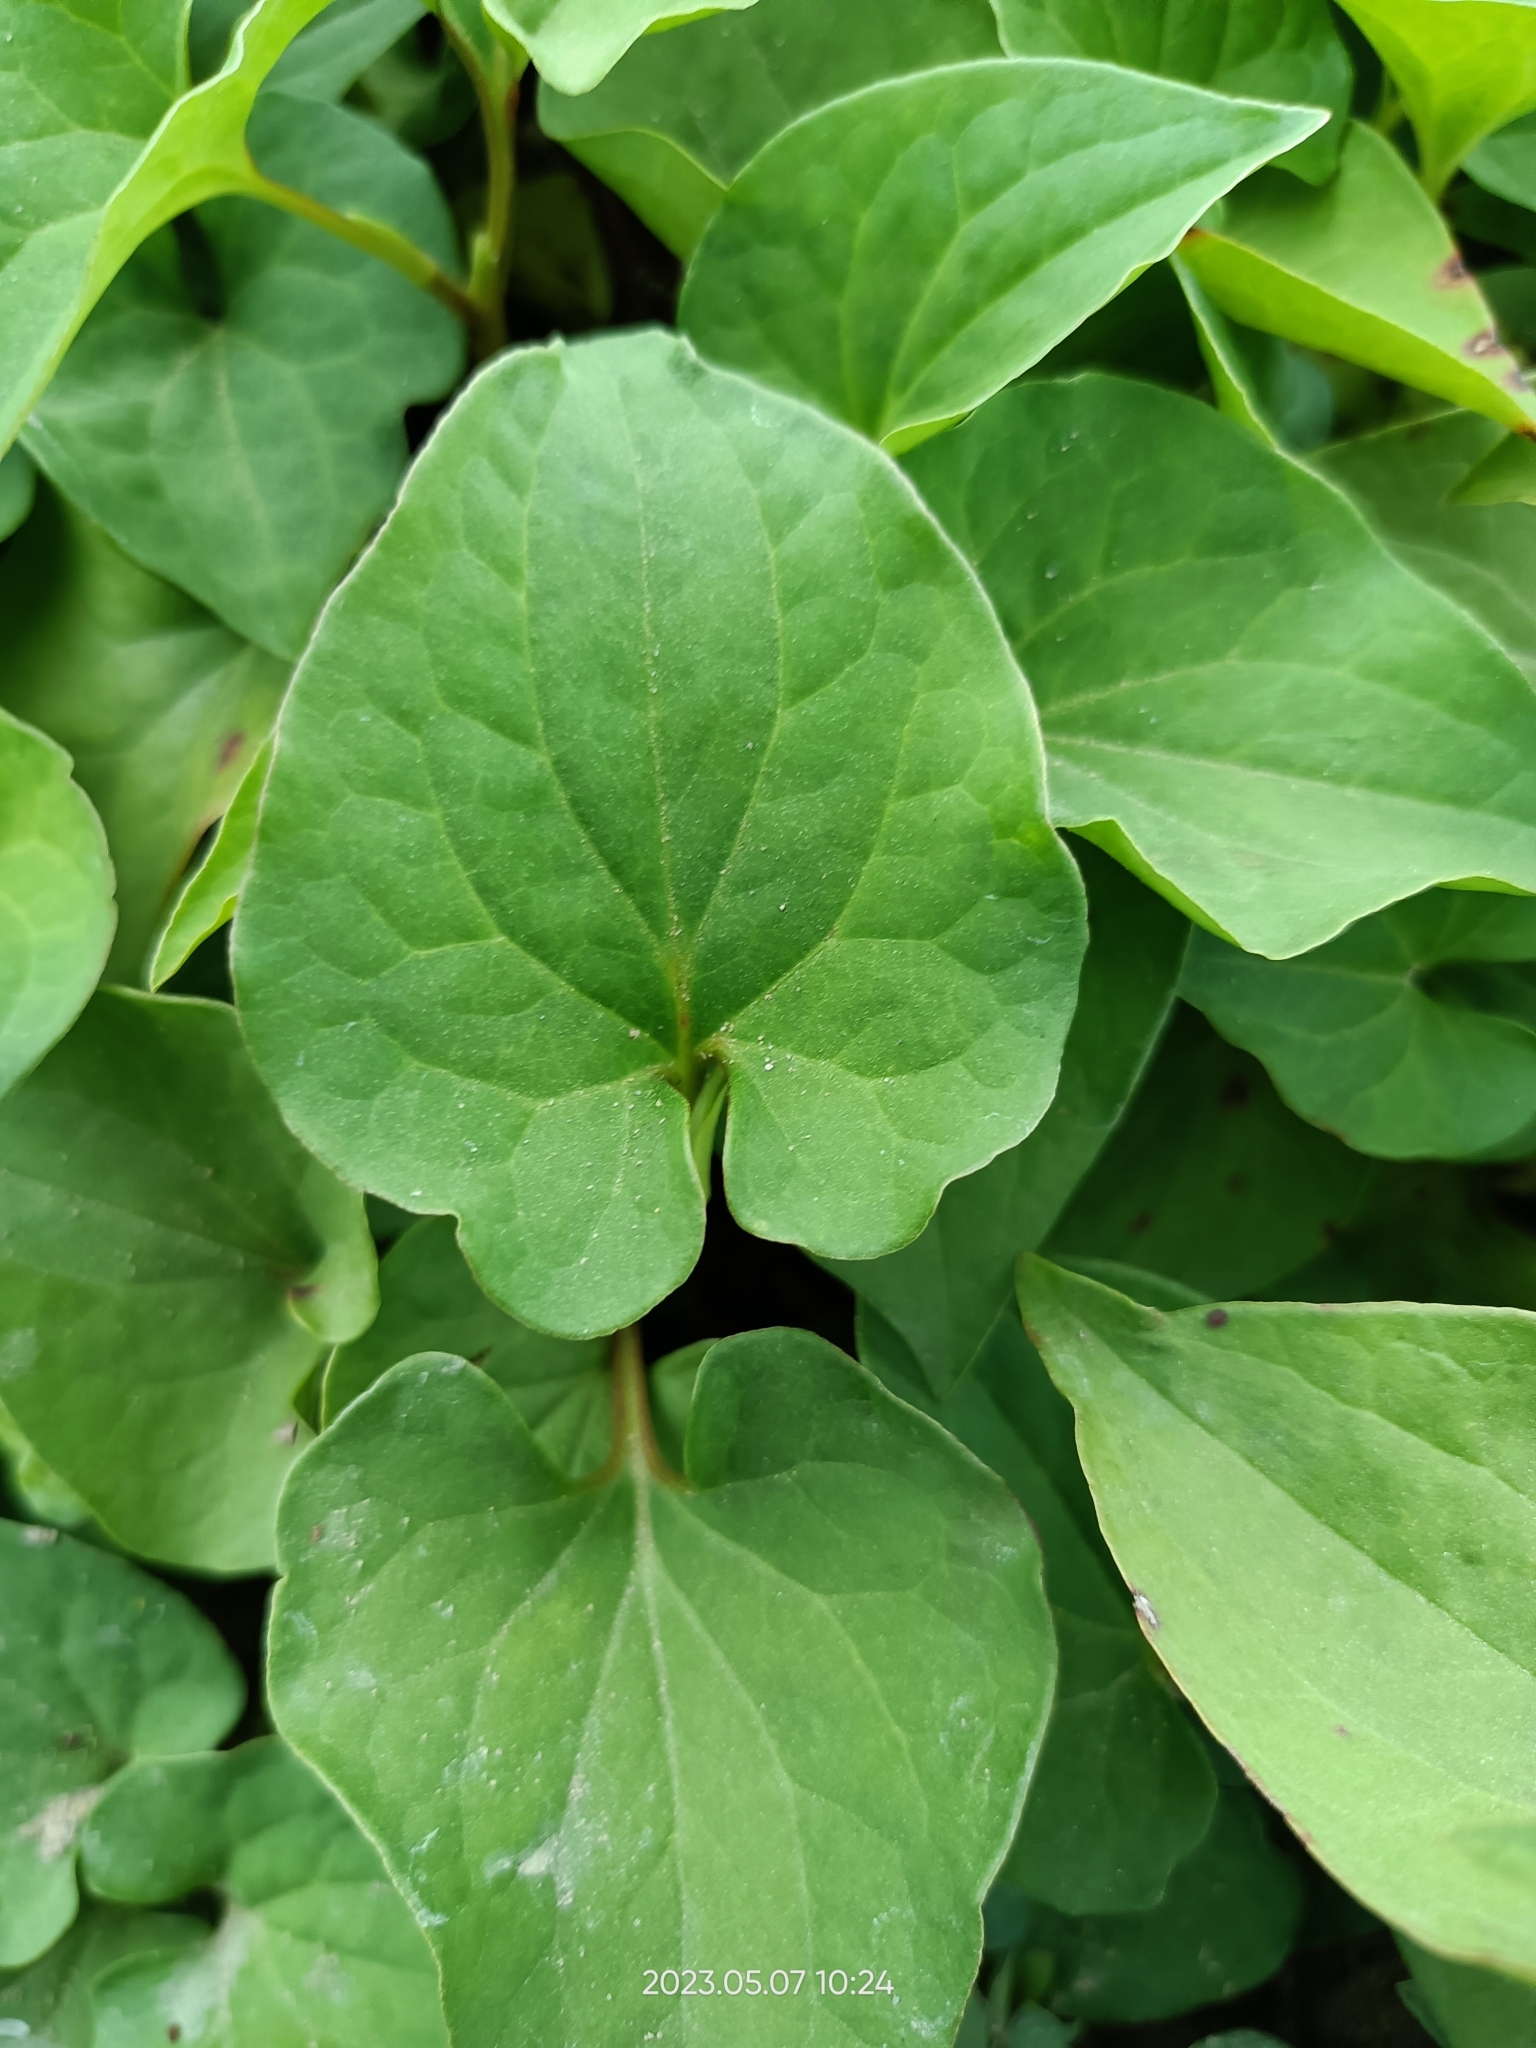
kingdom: Plantae
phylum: Tracheophyta
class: Magnoliopsida
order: Piperales
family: Saururaceae
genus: Houttuynia
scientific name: Houttuynia cordata
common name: Chameleon
